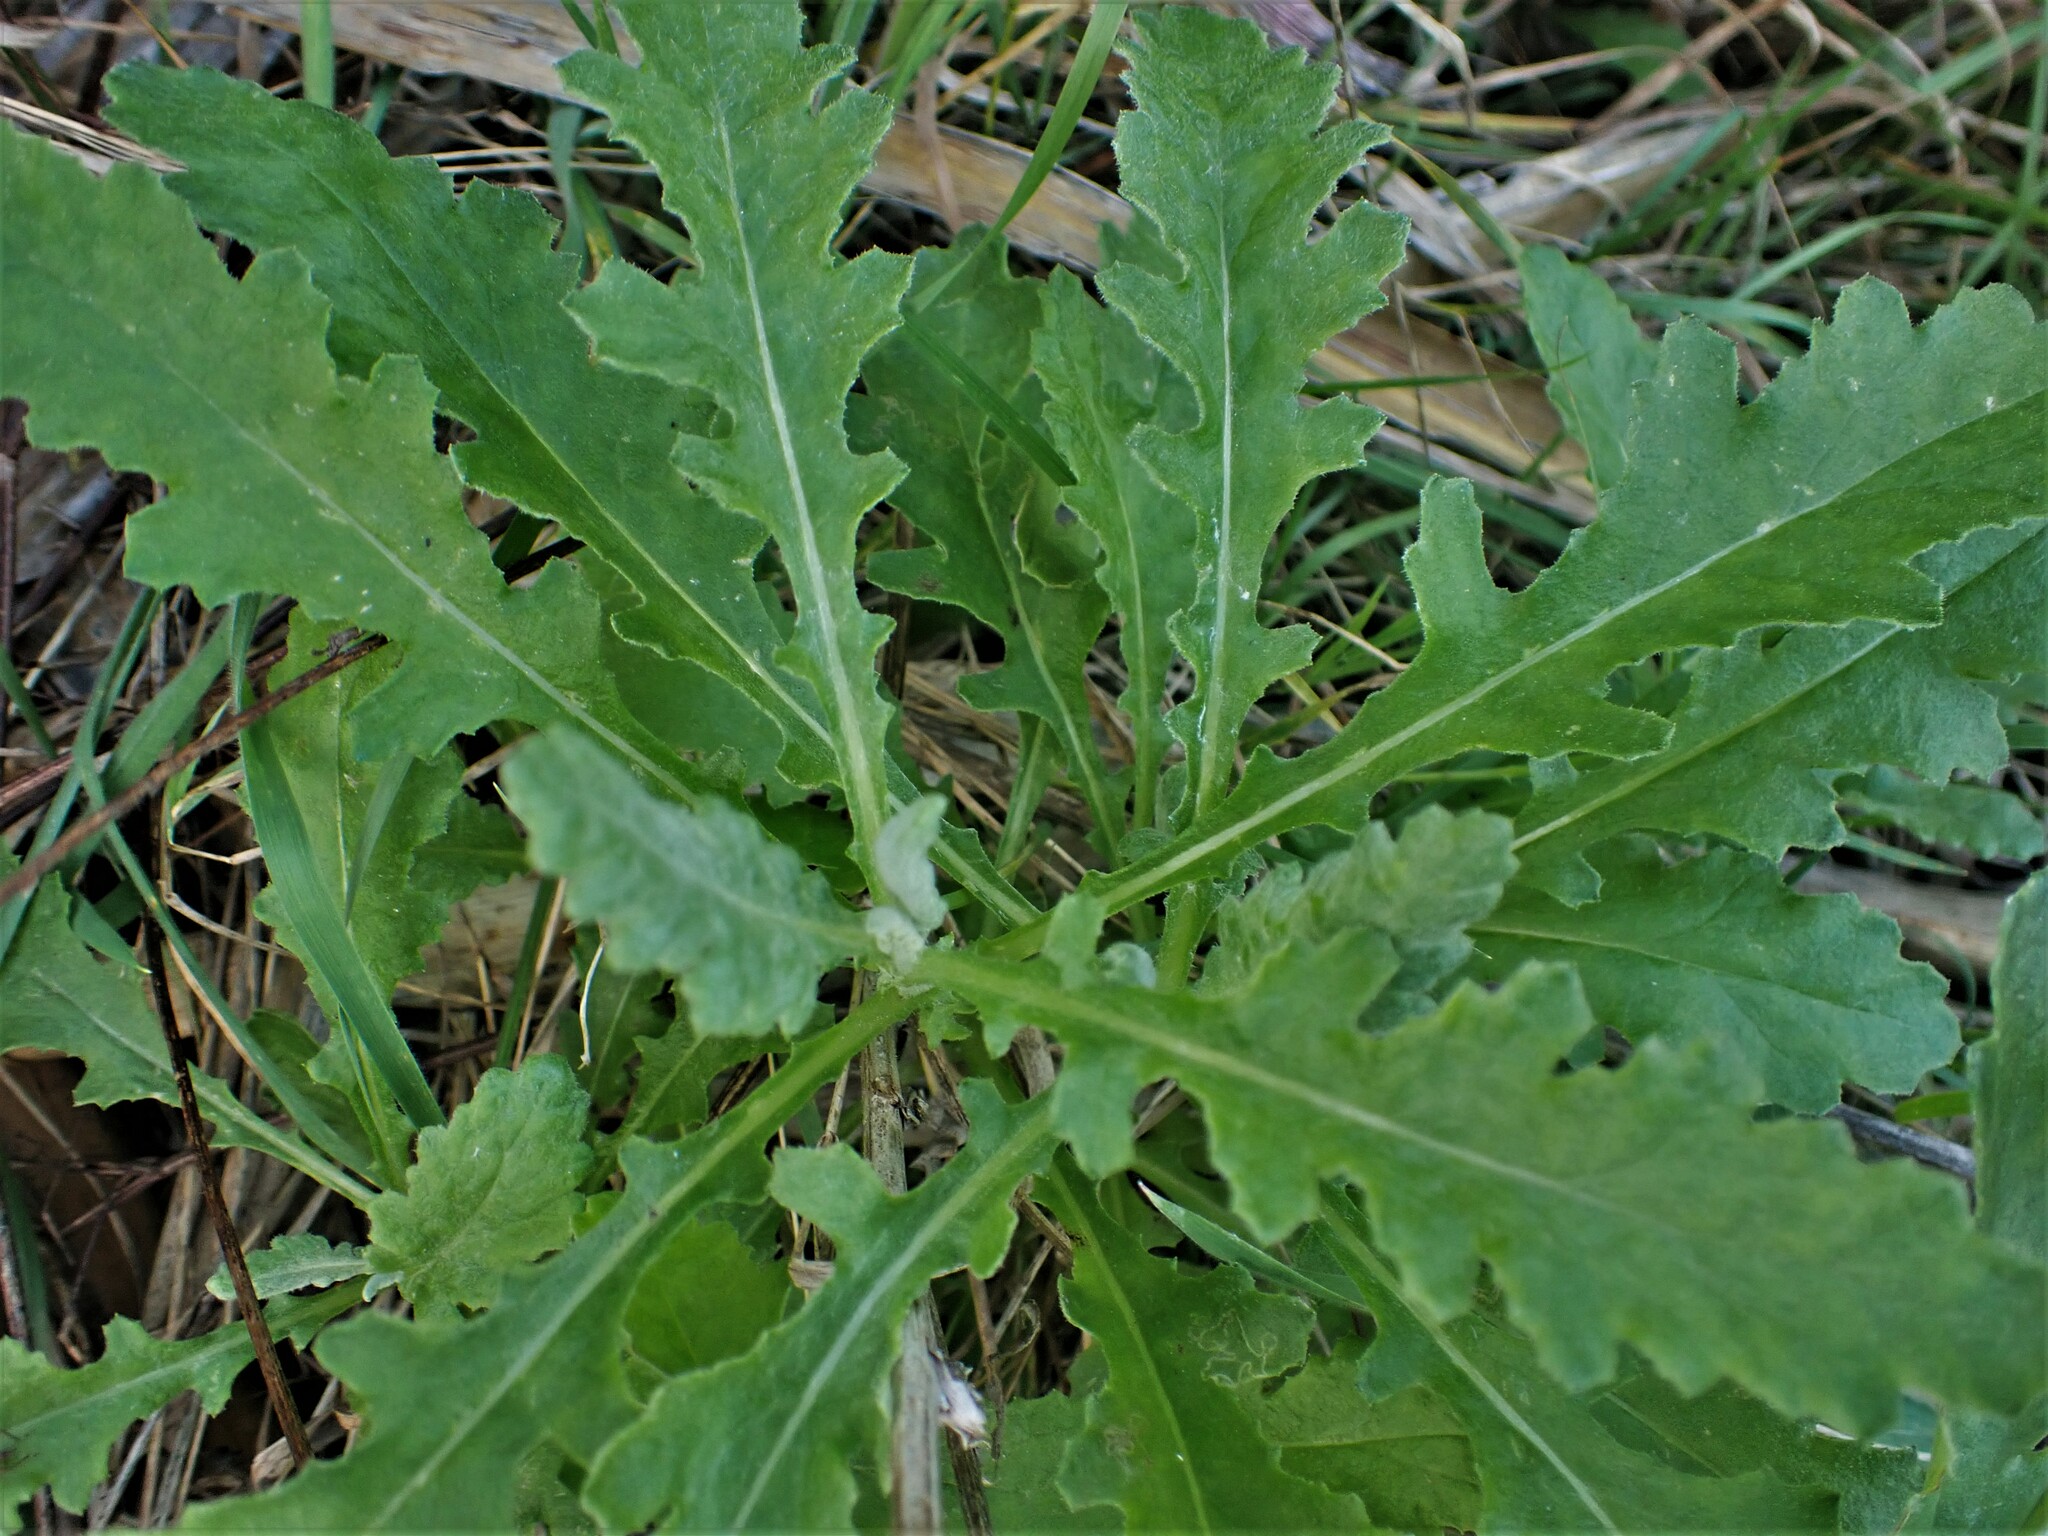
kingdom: Plantae
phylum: Tracheophyta
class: Magnoliopsida
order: Asterales
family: Asteraceae
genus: Senecio
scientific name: Senecio glomeratus
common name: Cutleaf burnweed
